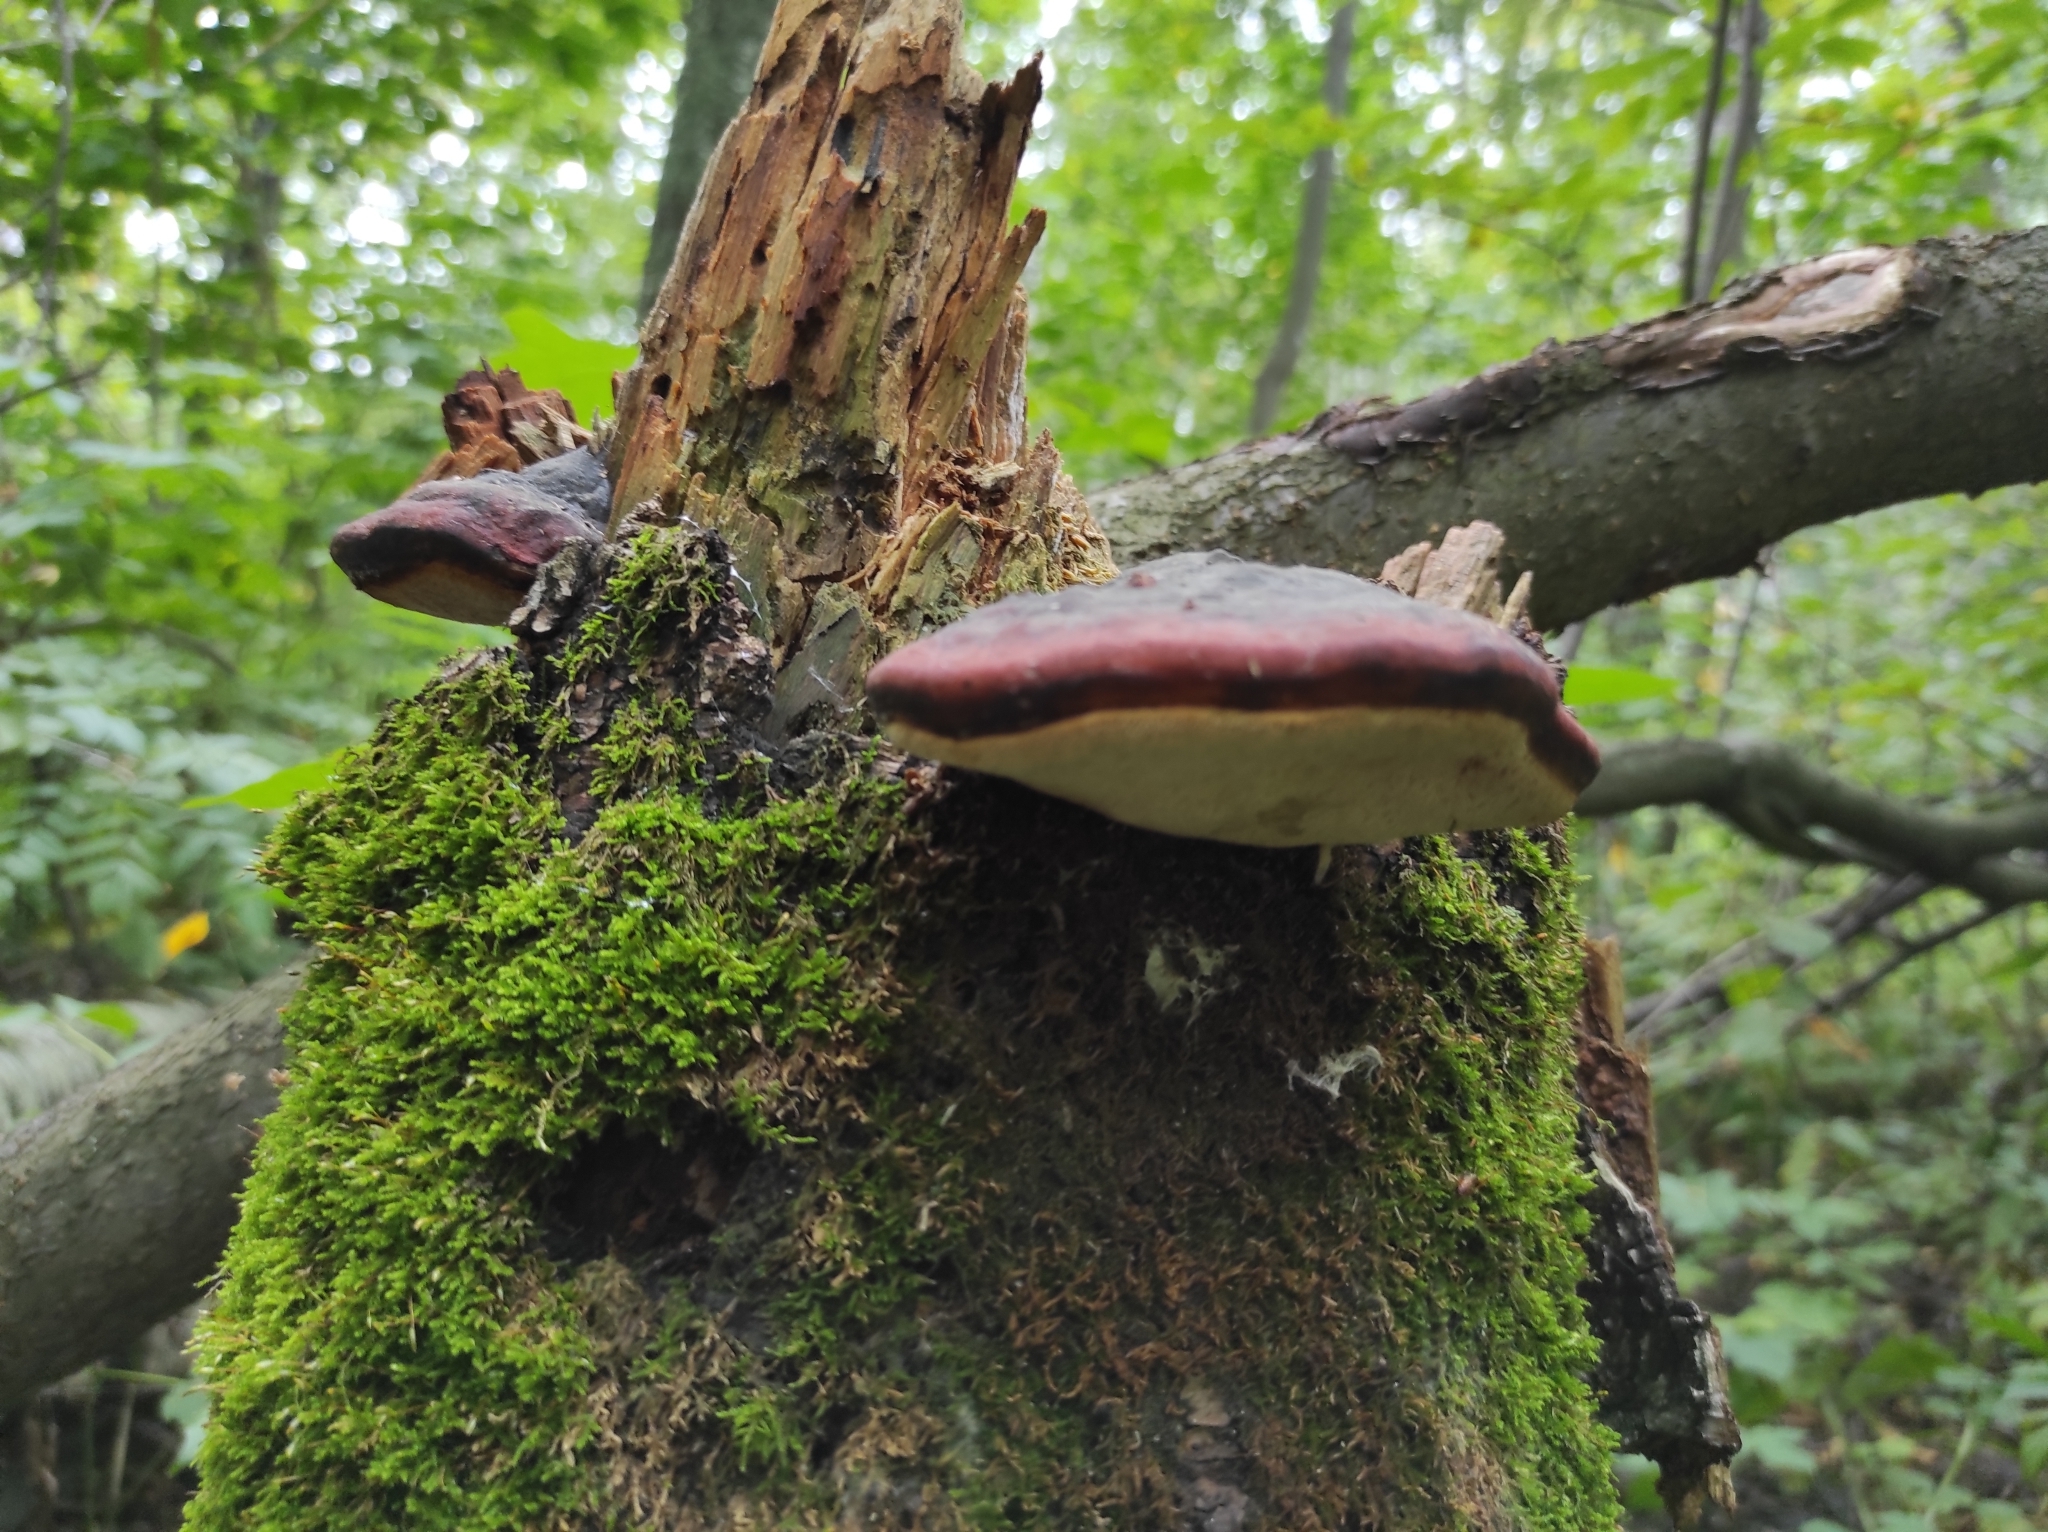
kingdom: Fungi
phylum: Basidiomycota
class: Agaricomycetes
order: Polyporales
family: Fomitopsidaceae
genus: Fomitopsis
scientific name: Fomitopsis pinicola
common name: Red-belted bracket
